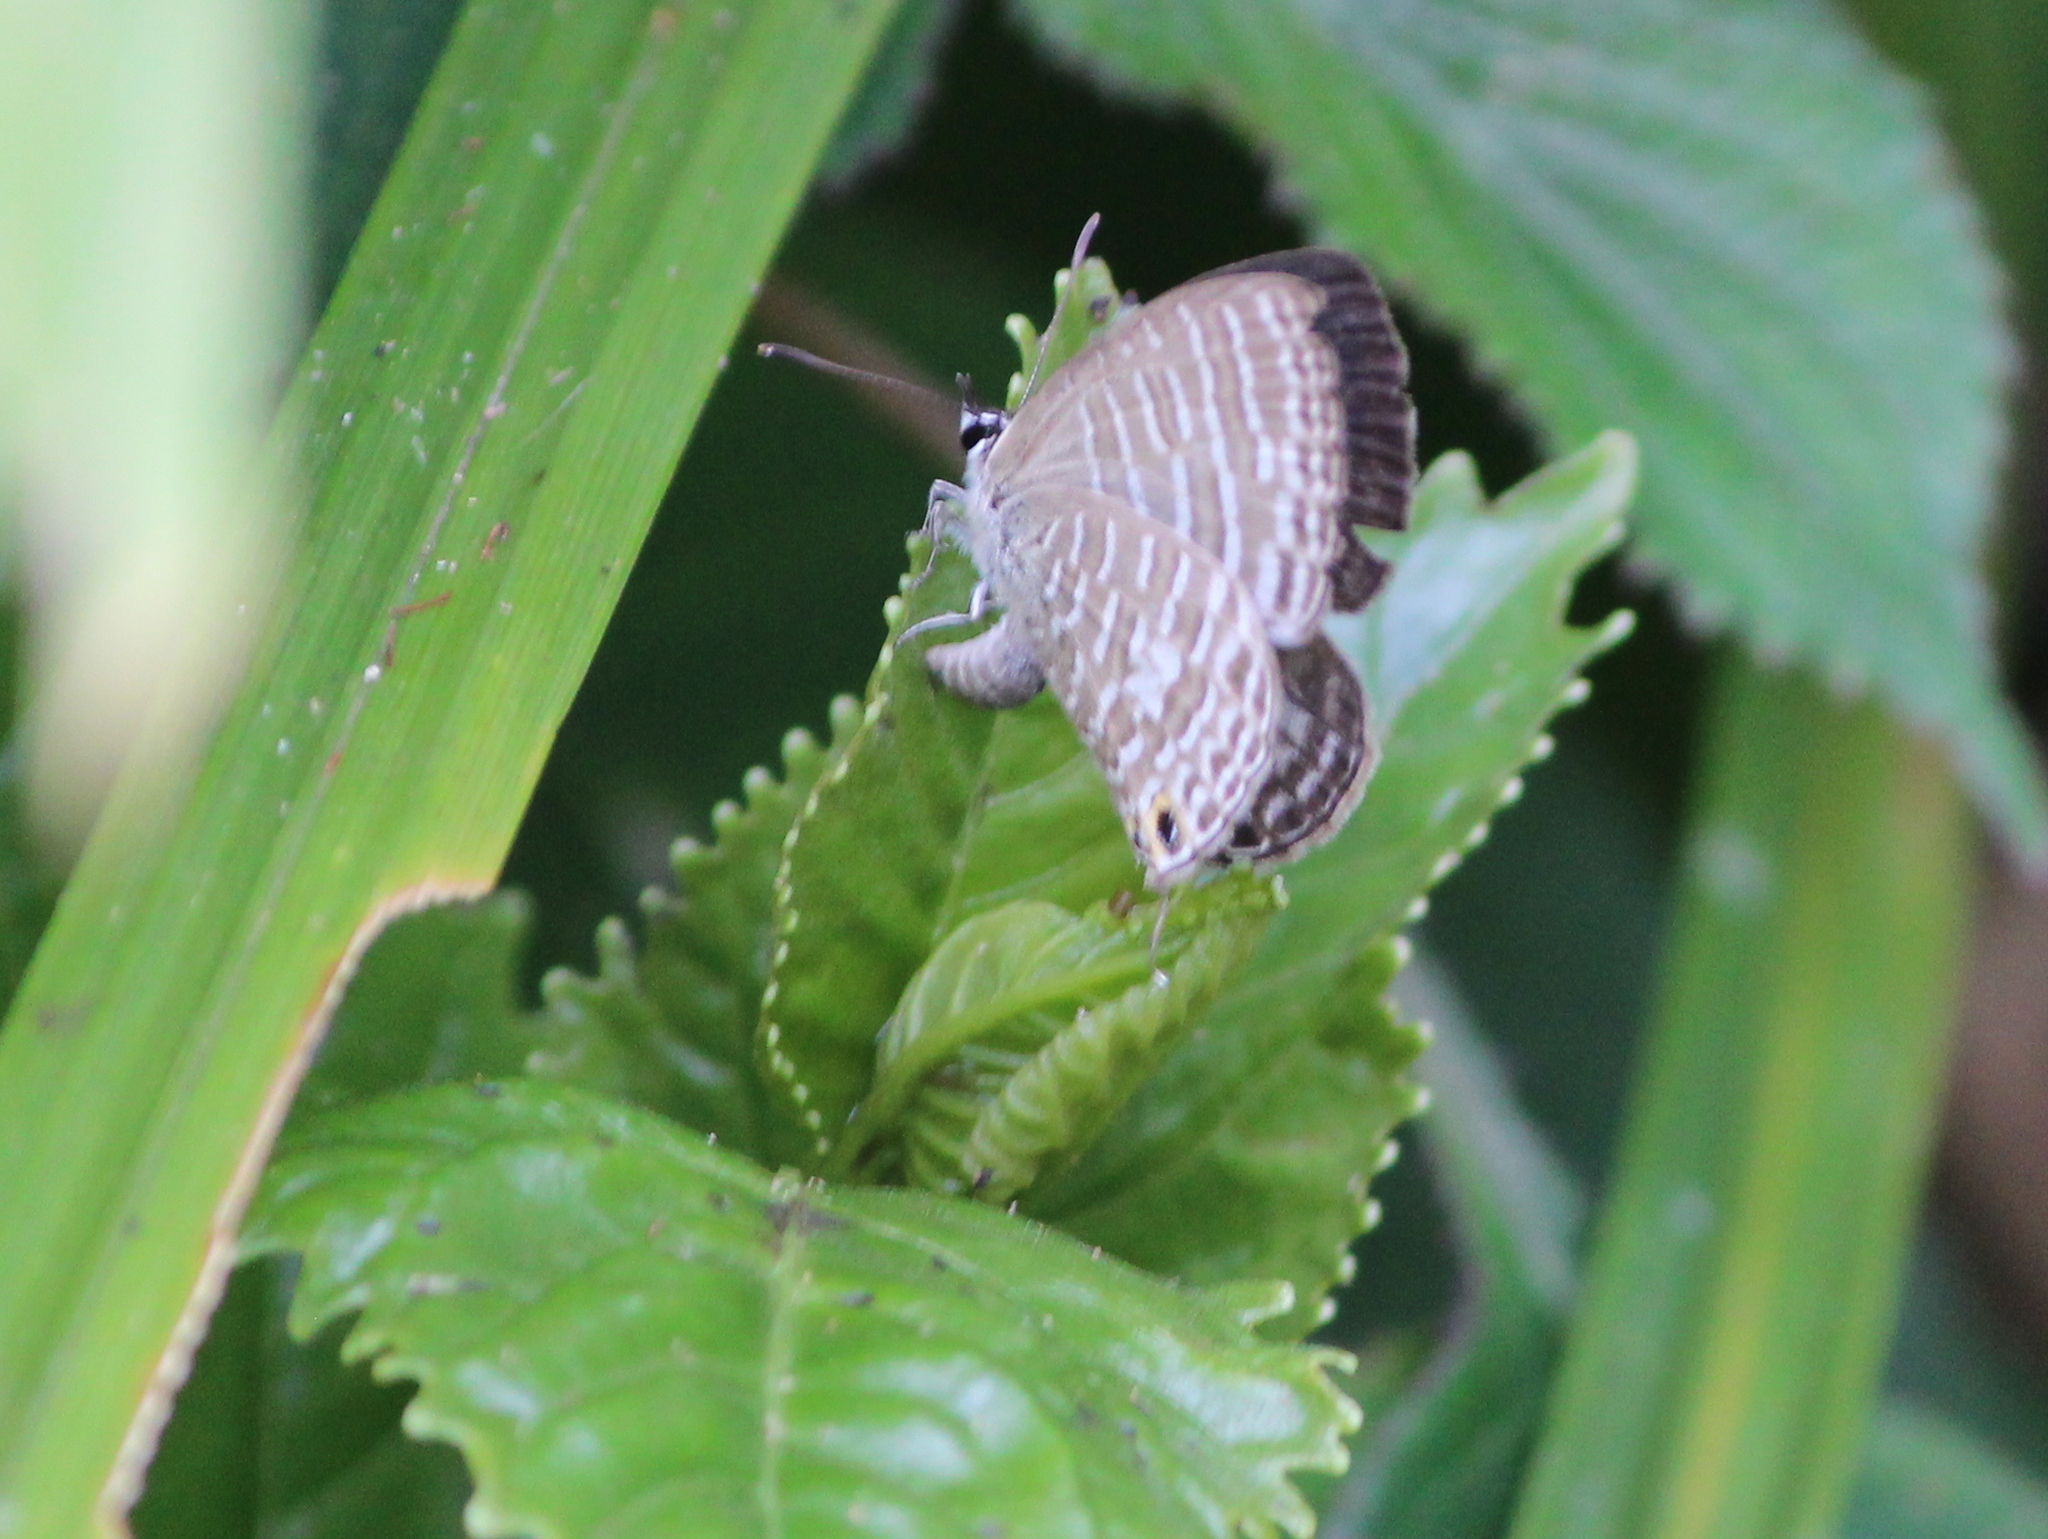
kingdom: Animalia
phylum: Arthropoda
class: Insecta
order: Lepidoptera
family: Lycaenidae
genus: Nacaduba
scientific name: Nacaduba kurava
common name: Transparent 6-line blue
